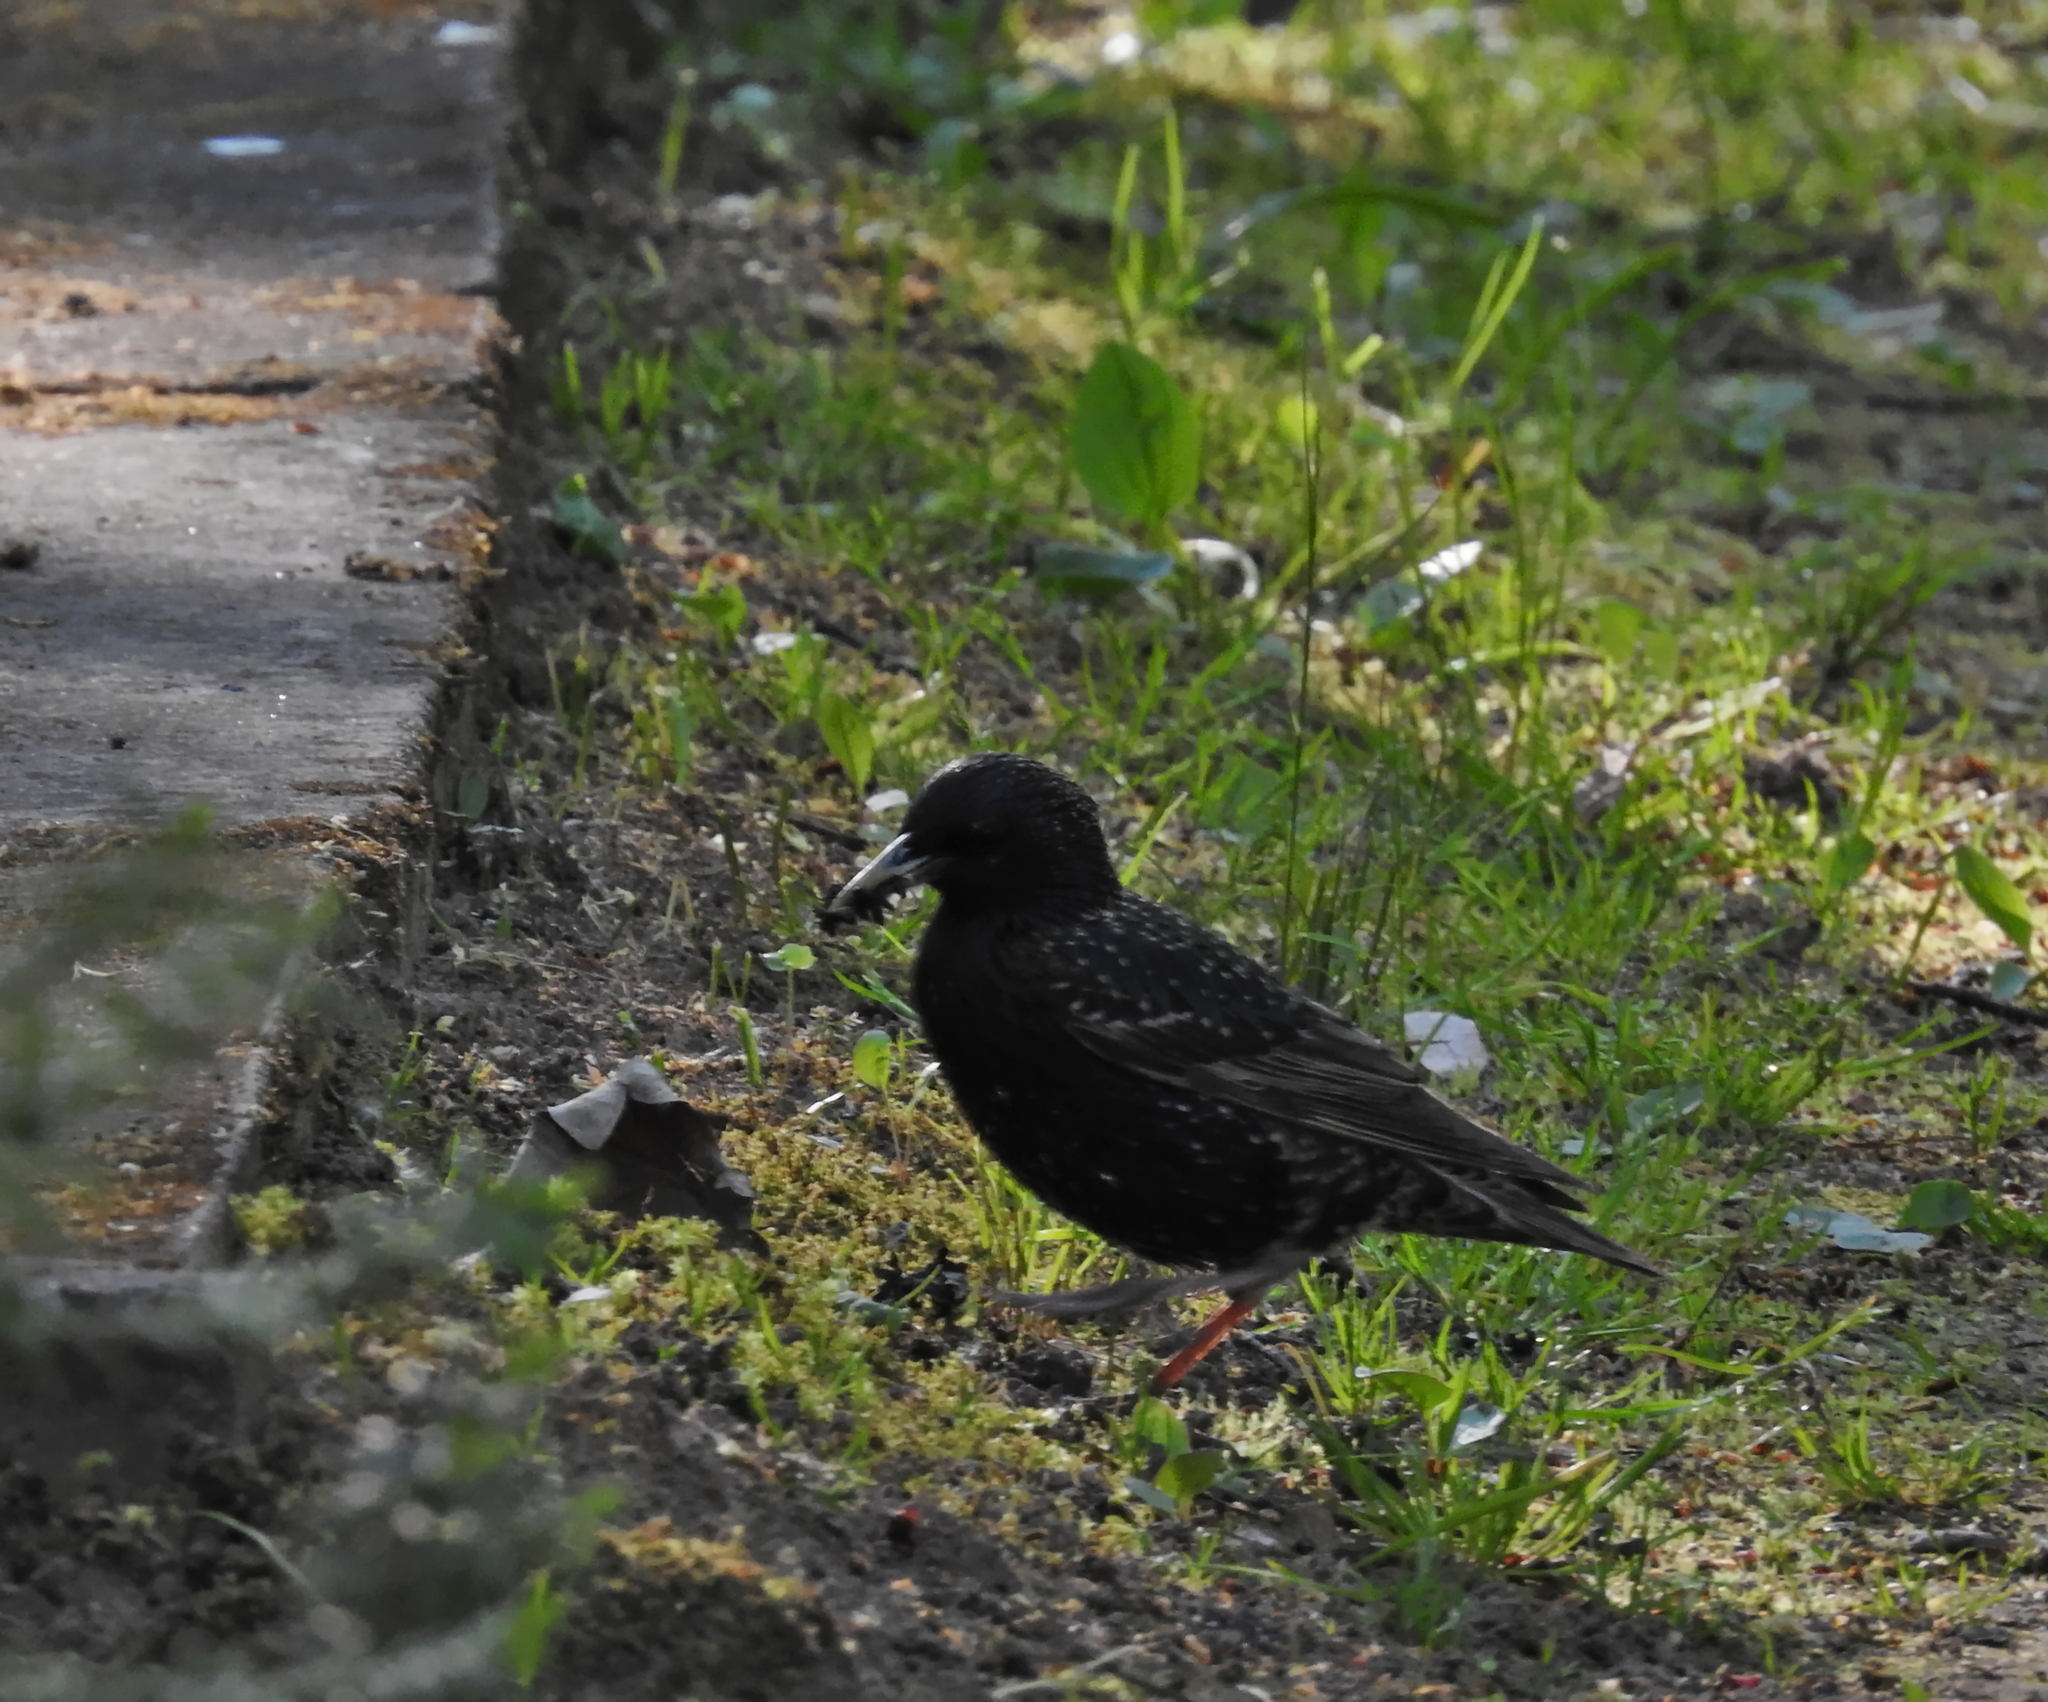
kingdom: Animalia
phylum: Chordata
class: Aves
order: Passeriformes
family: Sturnidae
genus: Sturnus
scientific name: Sturnus vulgaris
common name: Common starling
